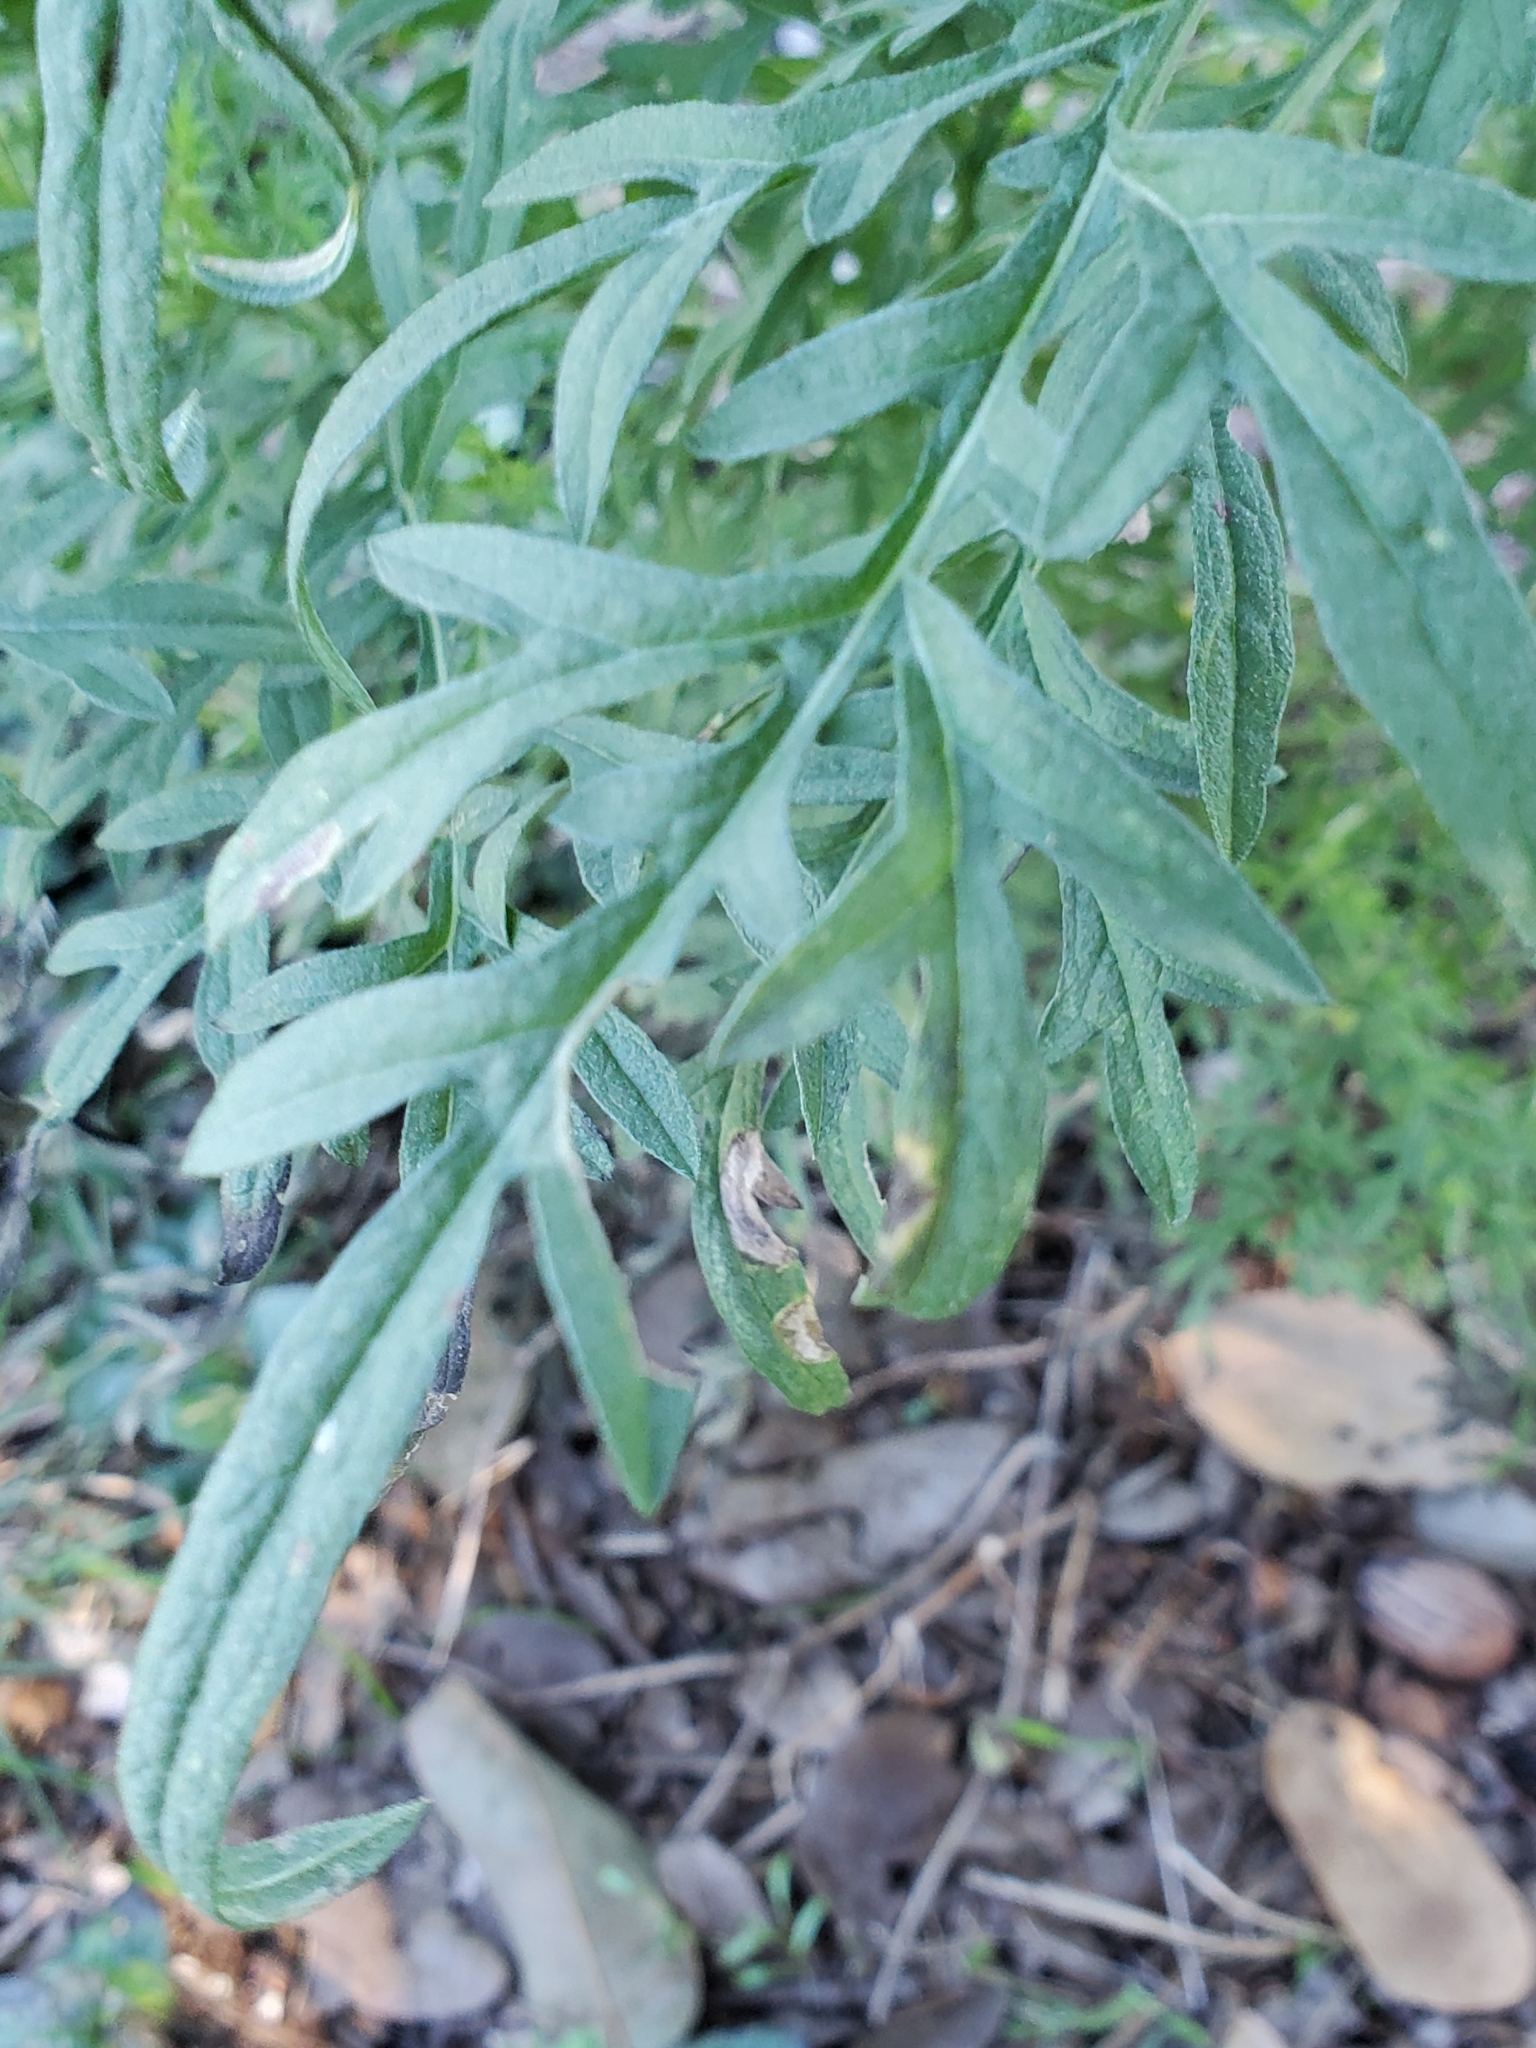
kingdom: Plantae
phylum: Tracheophyta
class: Magnoliopsida
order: Asterales
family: Asteraceae
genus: Ambrosia
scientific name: Ambrosia psilostachya
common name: Perennial ragweed
